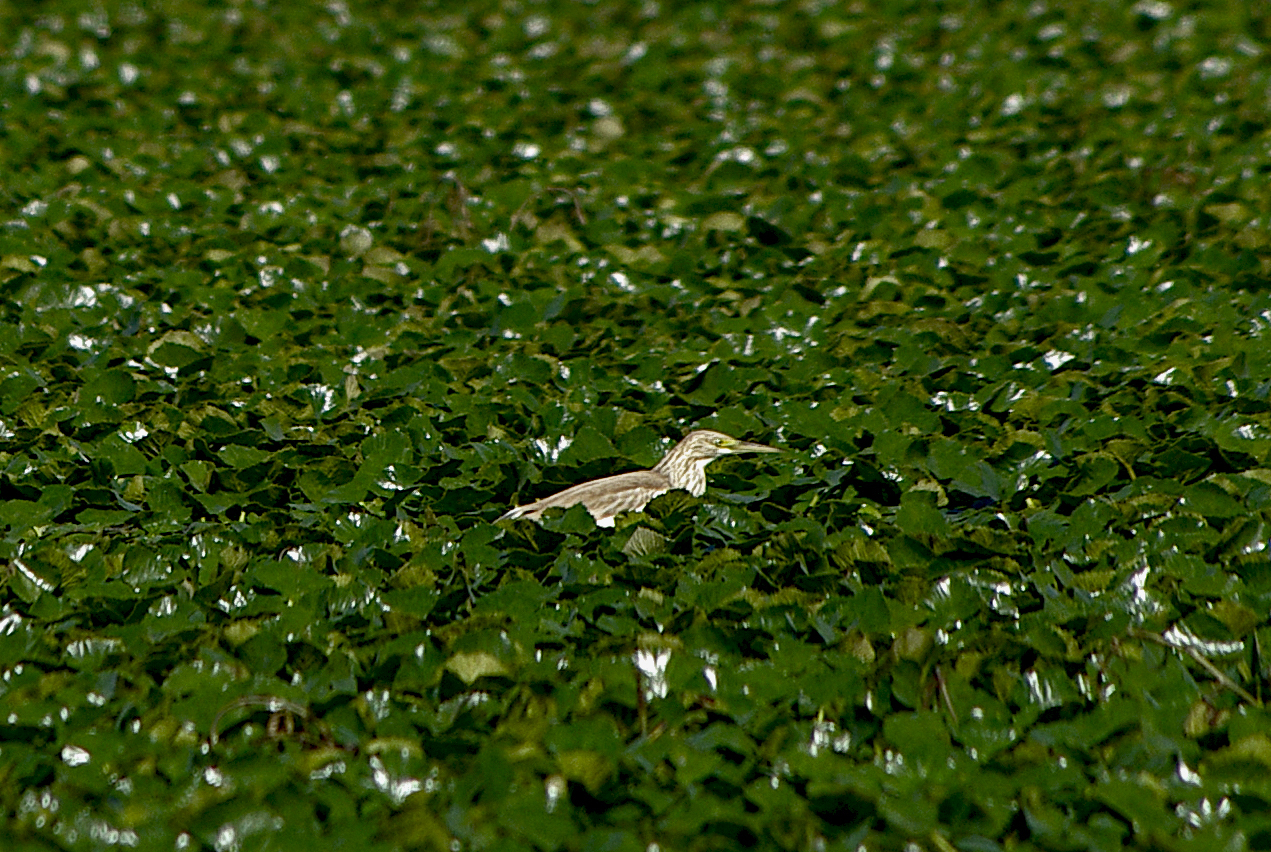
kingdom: Animalia
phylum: Chordata
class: Aves
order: Pelecaniformes
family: Ardeidae
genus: Ardeola
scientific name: Ardeola ralloides
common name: Squacco heron
